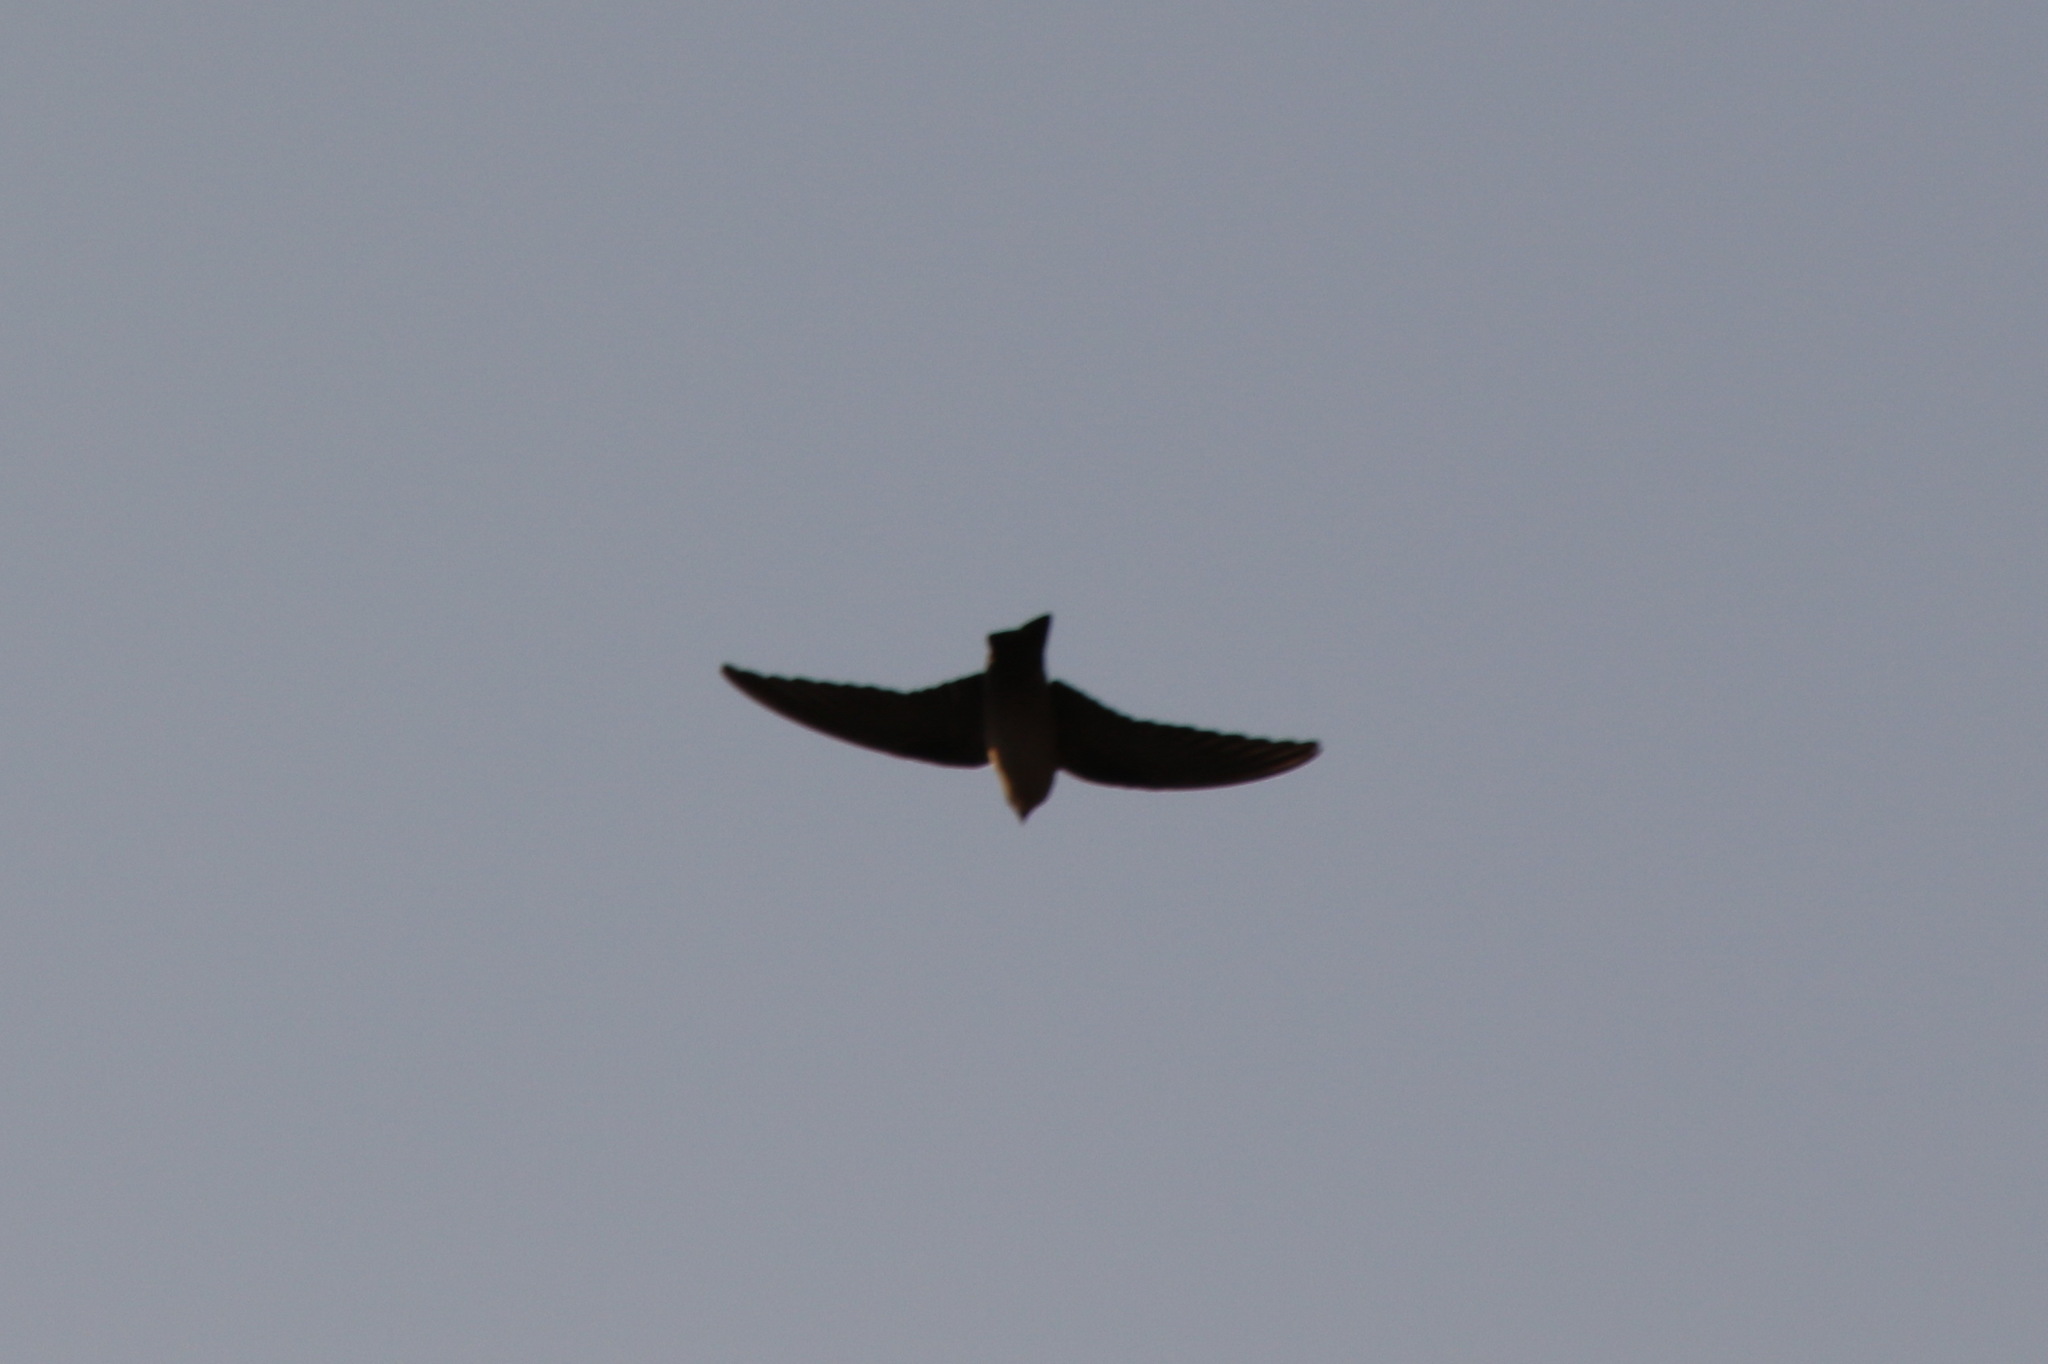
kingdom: Animalia
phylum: Chordata
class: Aves
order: Passeriformes
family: Hirundinidae
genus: Ptyonoprogne
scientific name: Ptyonoprogne fuligula
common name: Rock martin
